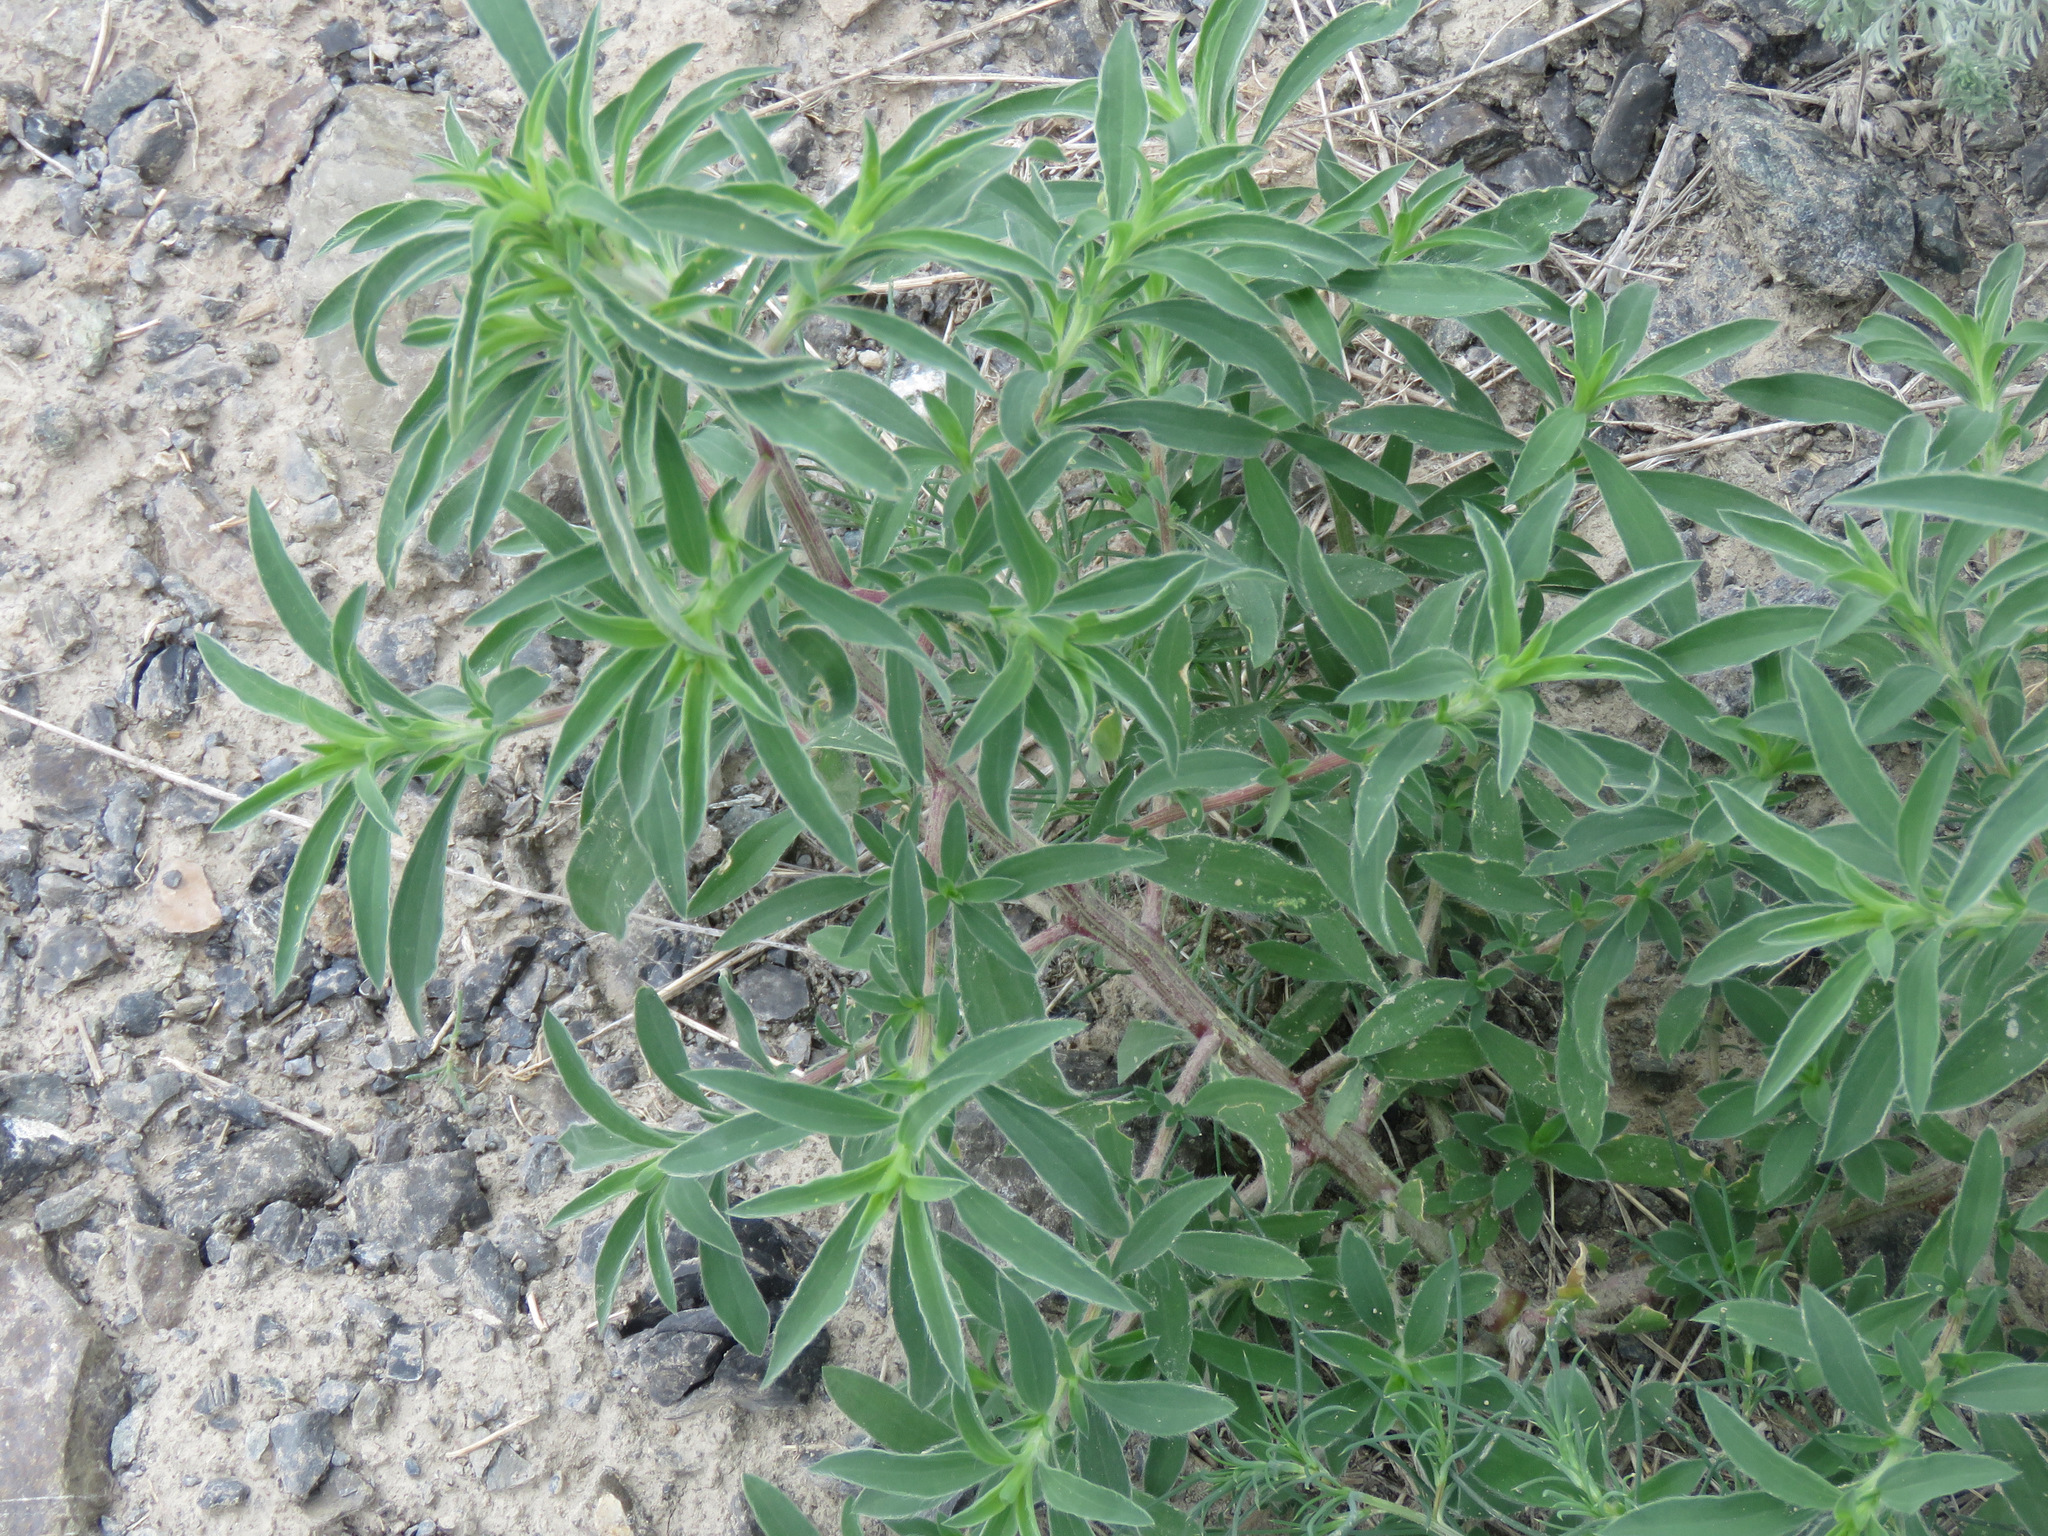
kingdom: Plantae
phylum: Tracheophyta
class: Magnoliopsida
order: Caryophyllales
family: Amaranthaceae
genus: Bassia
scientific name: Bassia scoparia
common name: Belvedere
